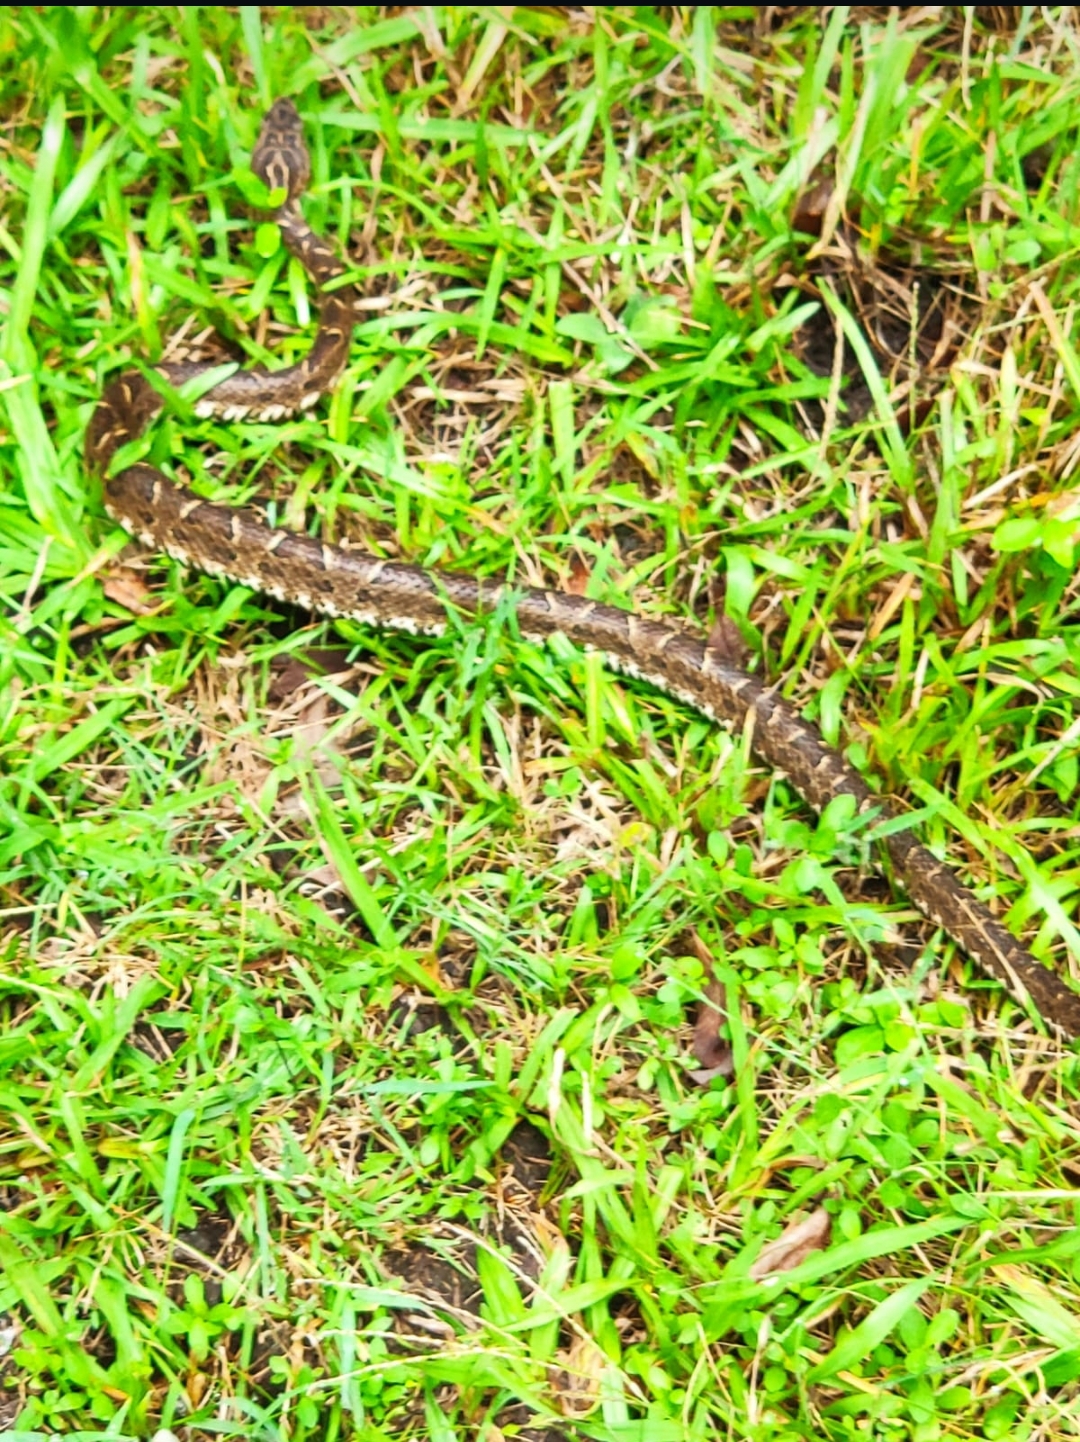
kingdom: Animalia
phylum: Chordata
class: Squamata
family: Viperidae
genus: Bothrops
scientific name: Bothrops pubescens
